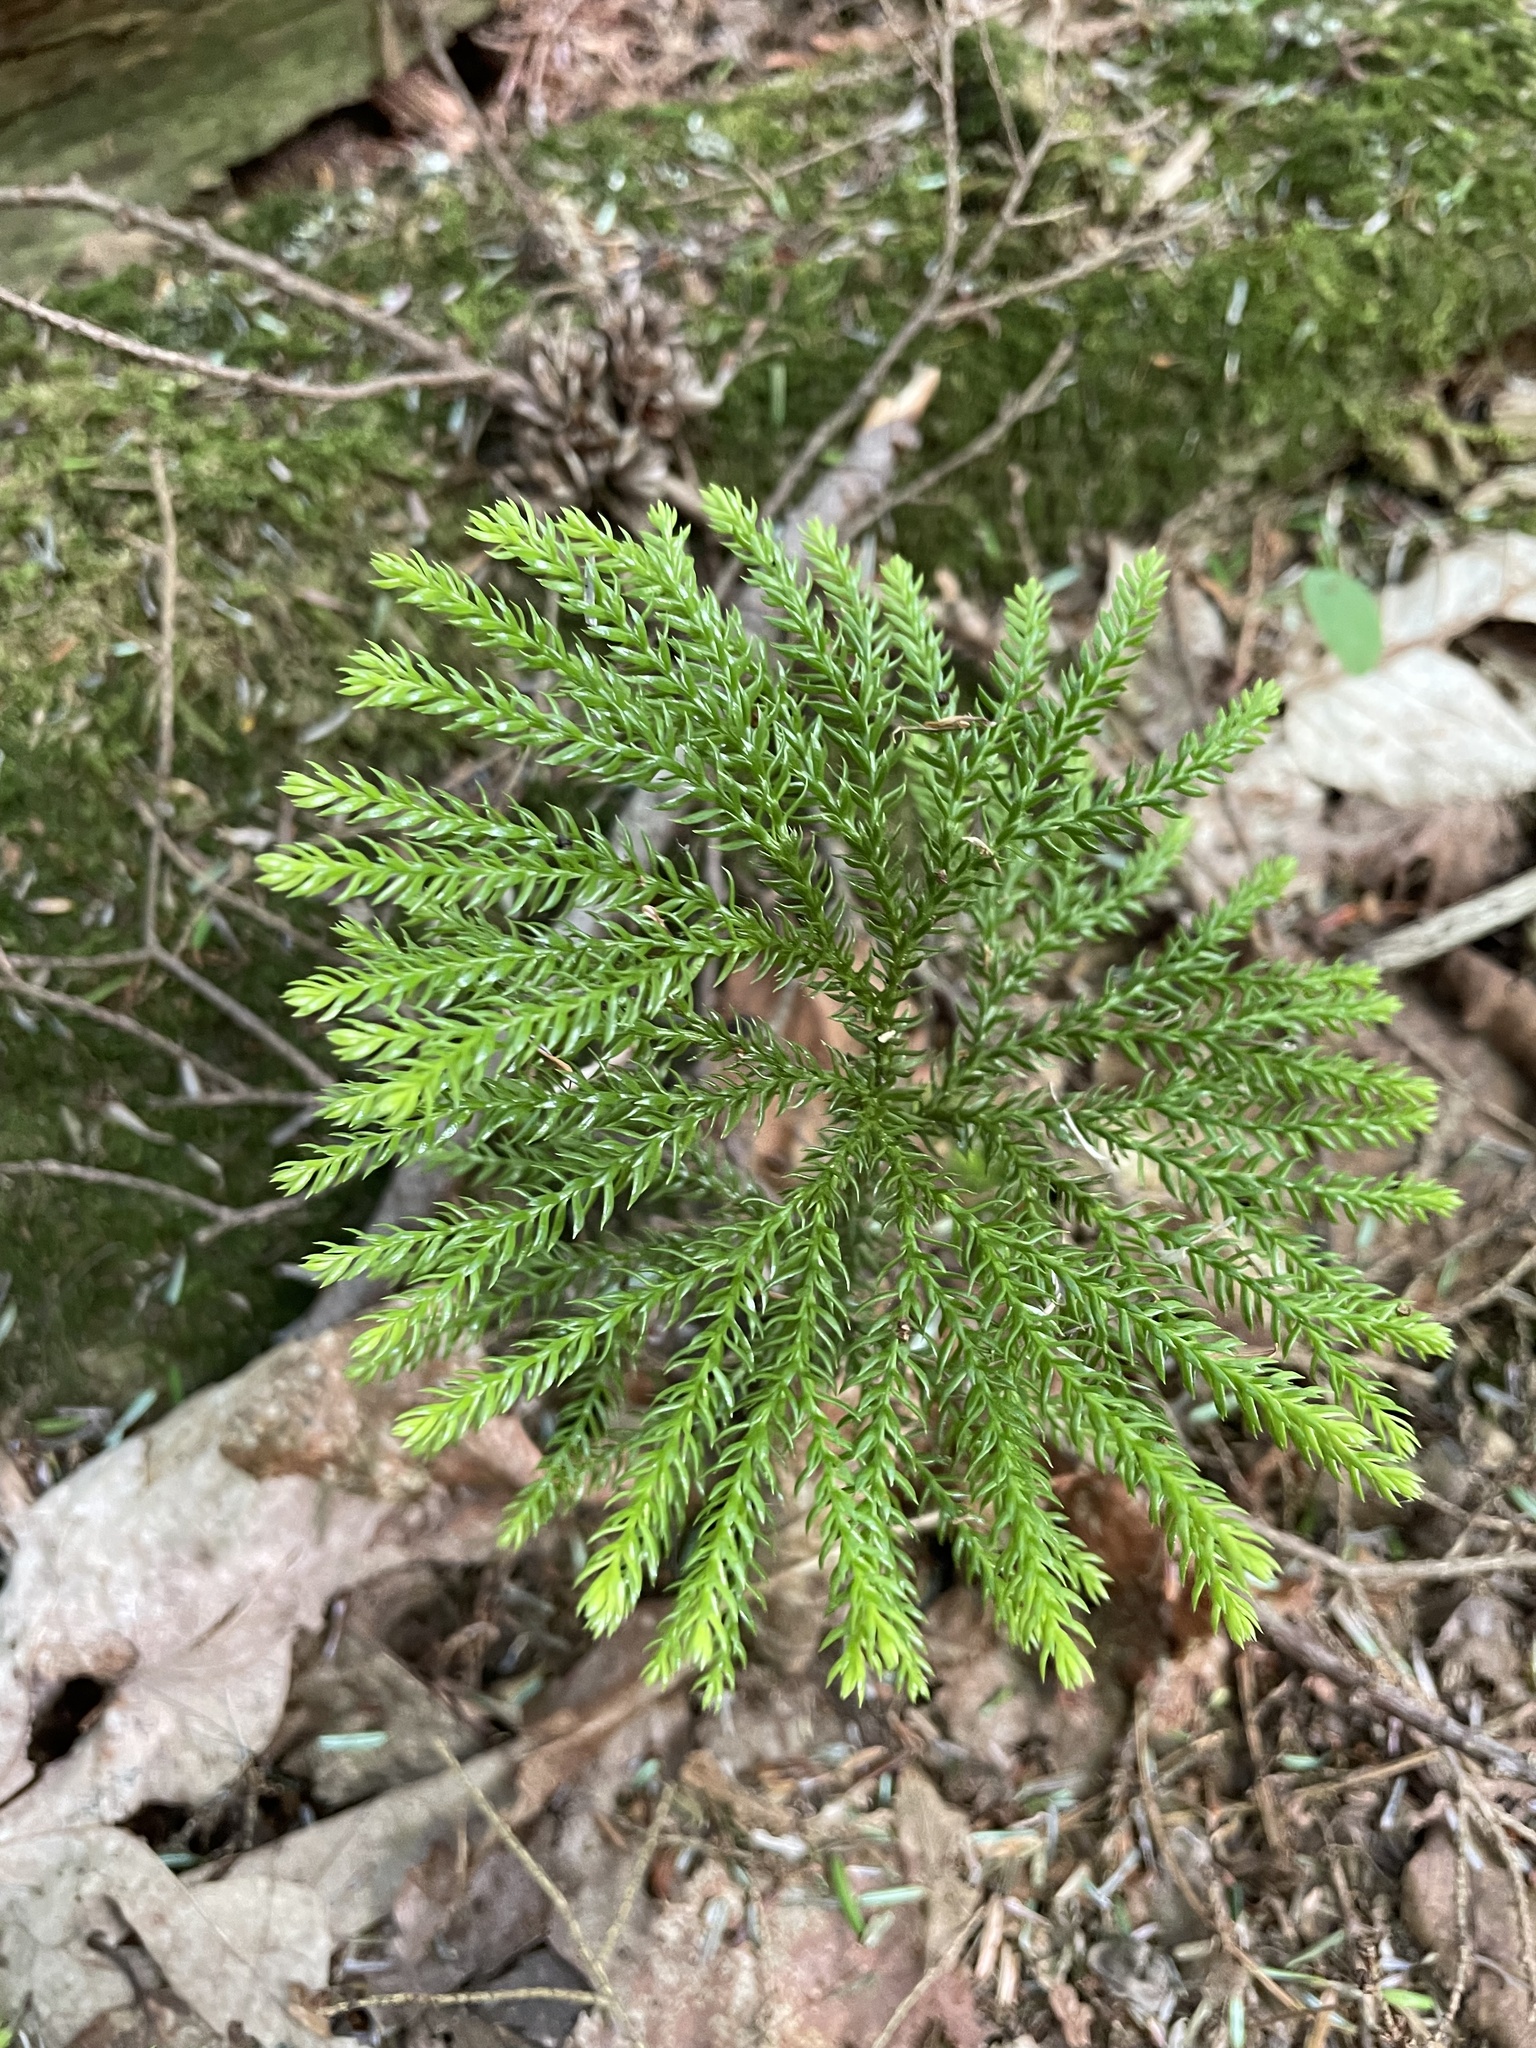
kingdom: Plantae
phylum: Tracheophyta
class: Lycopodiopsida
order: Lycopodiales
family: Lycopodiaceae
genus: Dendrolycopodium
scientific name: Dendrolycopodium dendroideum
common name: Northern tree-clubmoss
